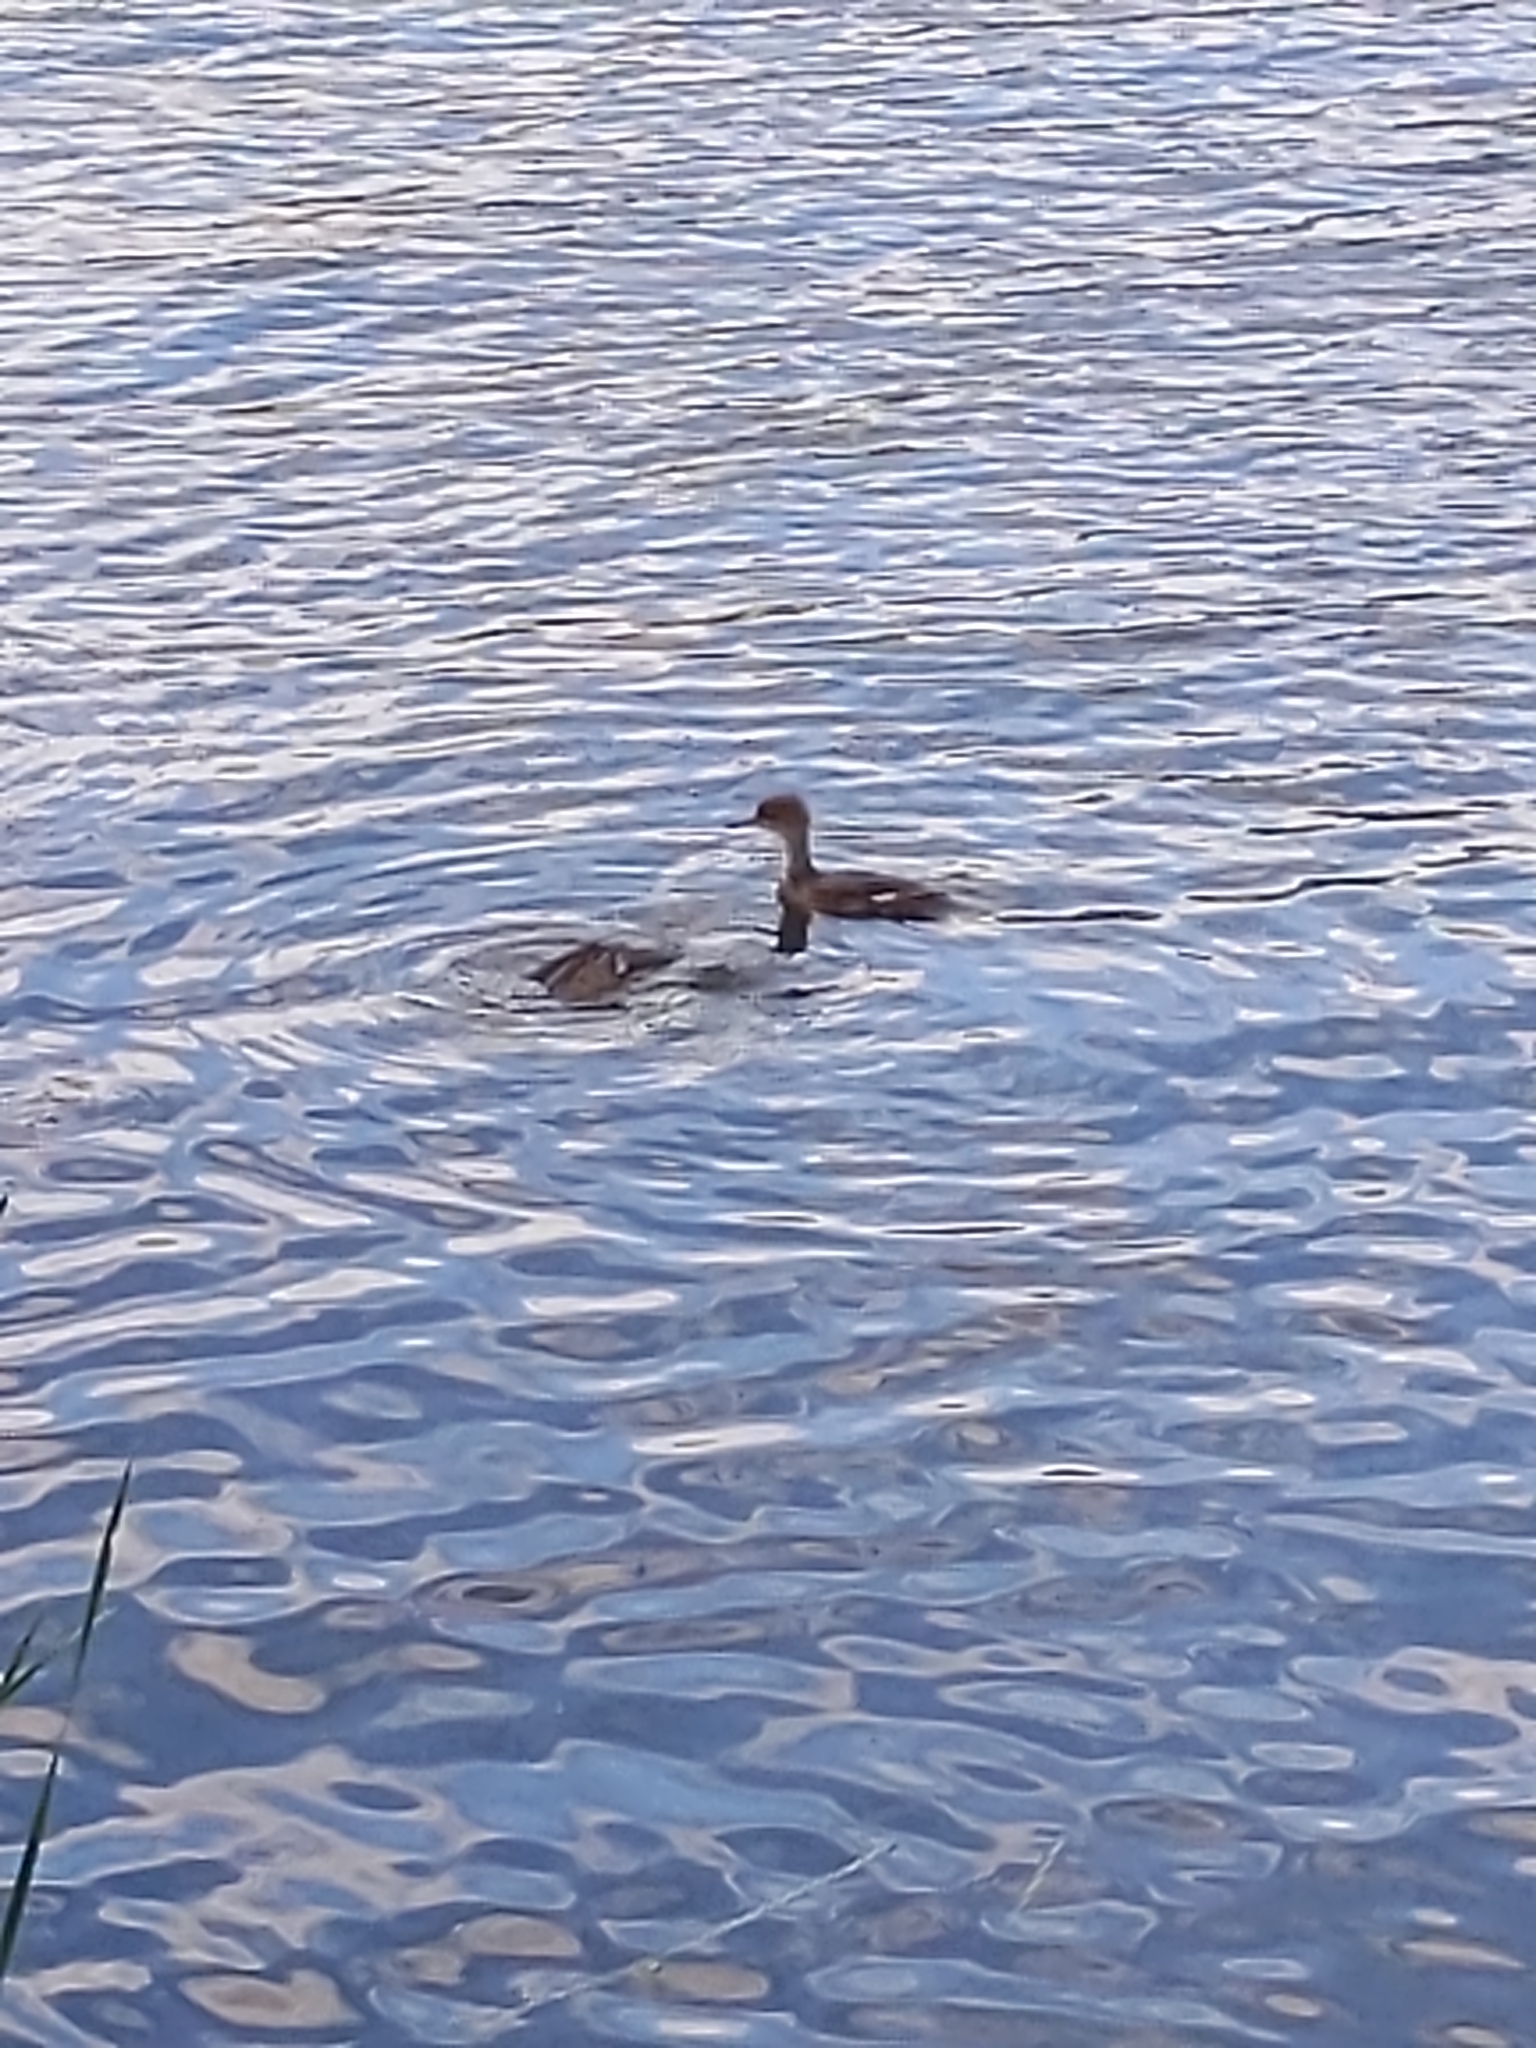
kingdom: Animalia
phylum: Chordata
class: Aves
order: Anseriformes
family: Anatidae
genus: Lophodytes
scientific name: Lophodytes cucullatus
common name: Hooded merganser
